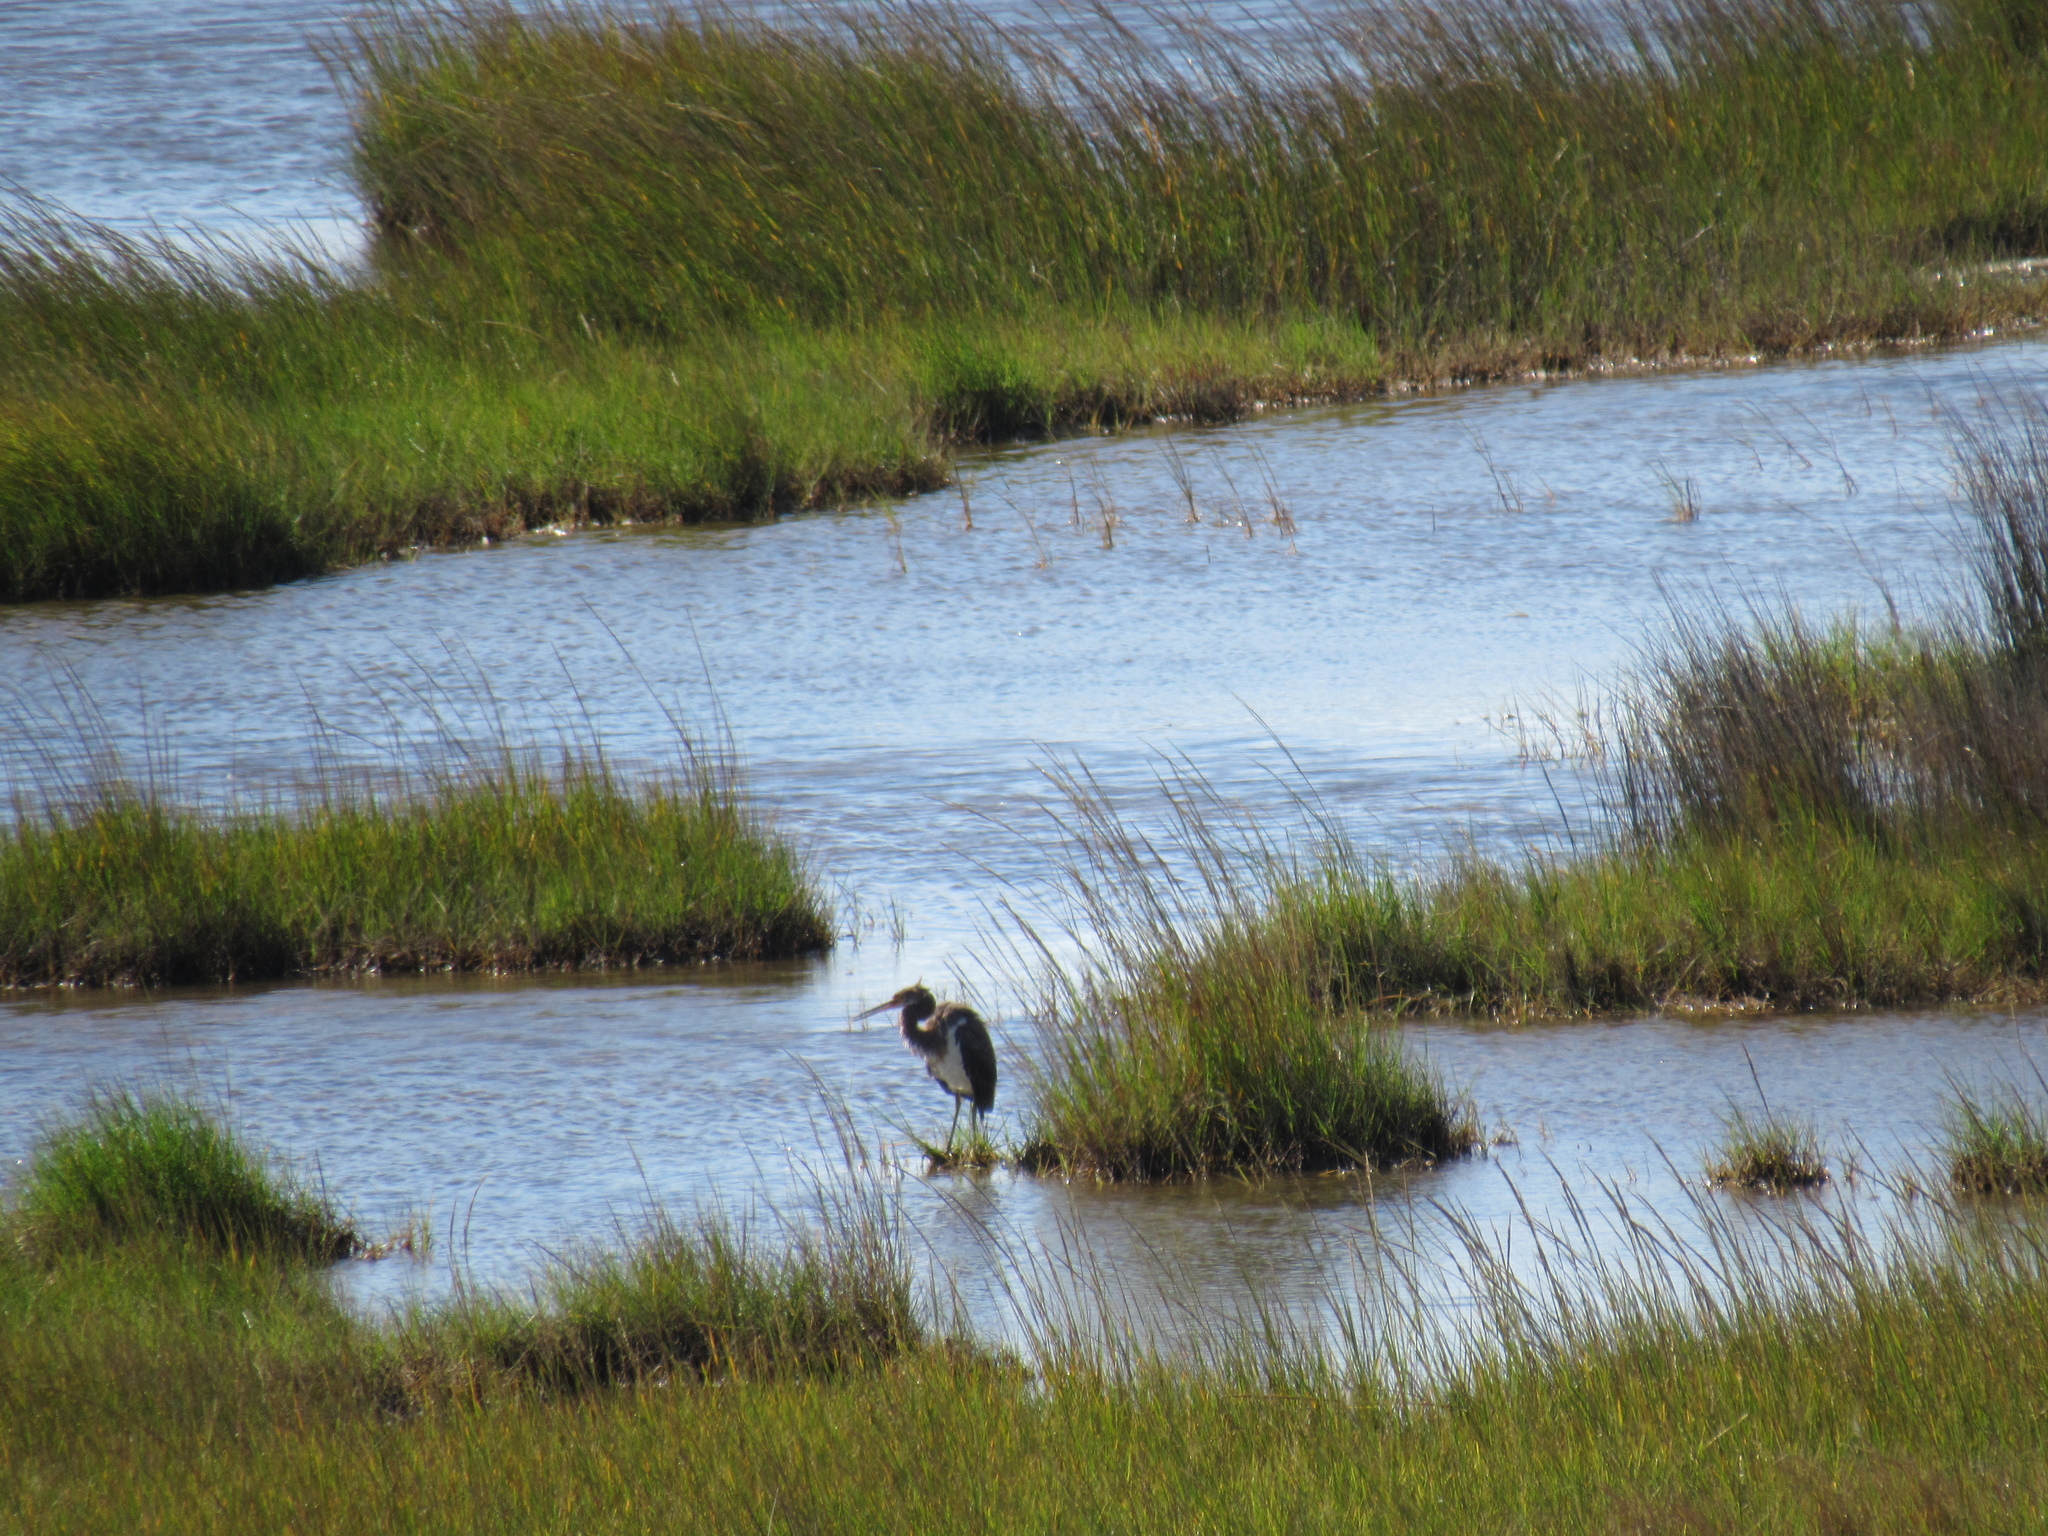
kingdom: Animalia
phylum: Chordata
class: Aves
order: Pelecaniformes
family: Ardeidae
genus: Egretta
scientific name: Egretta tricolor
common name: Tricolored heron
